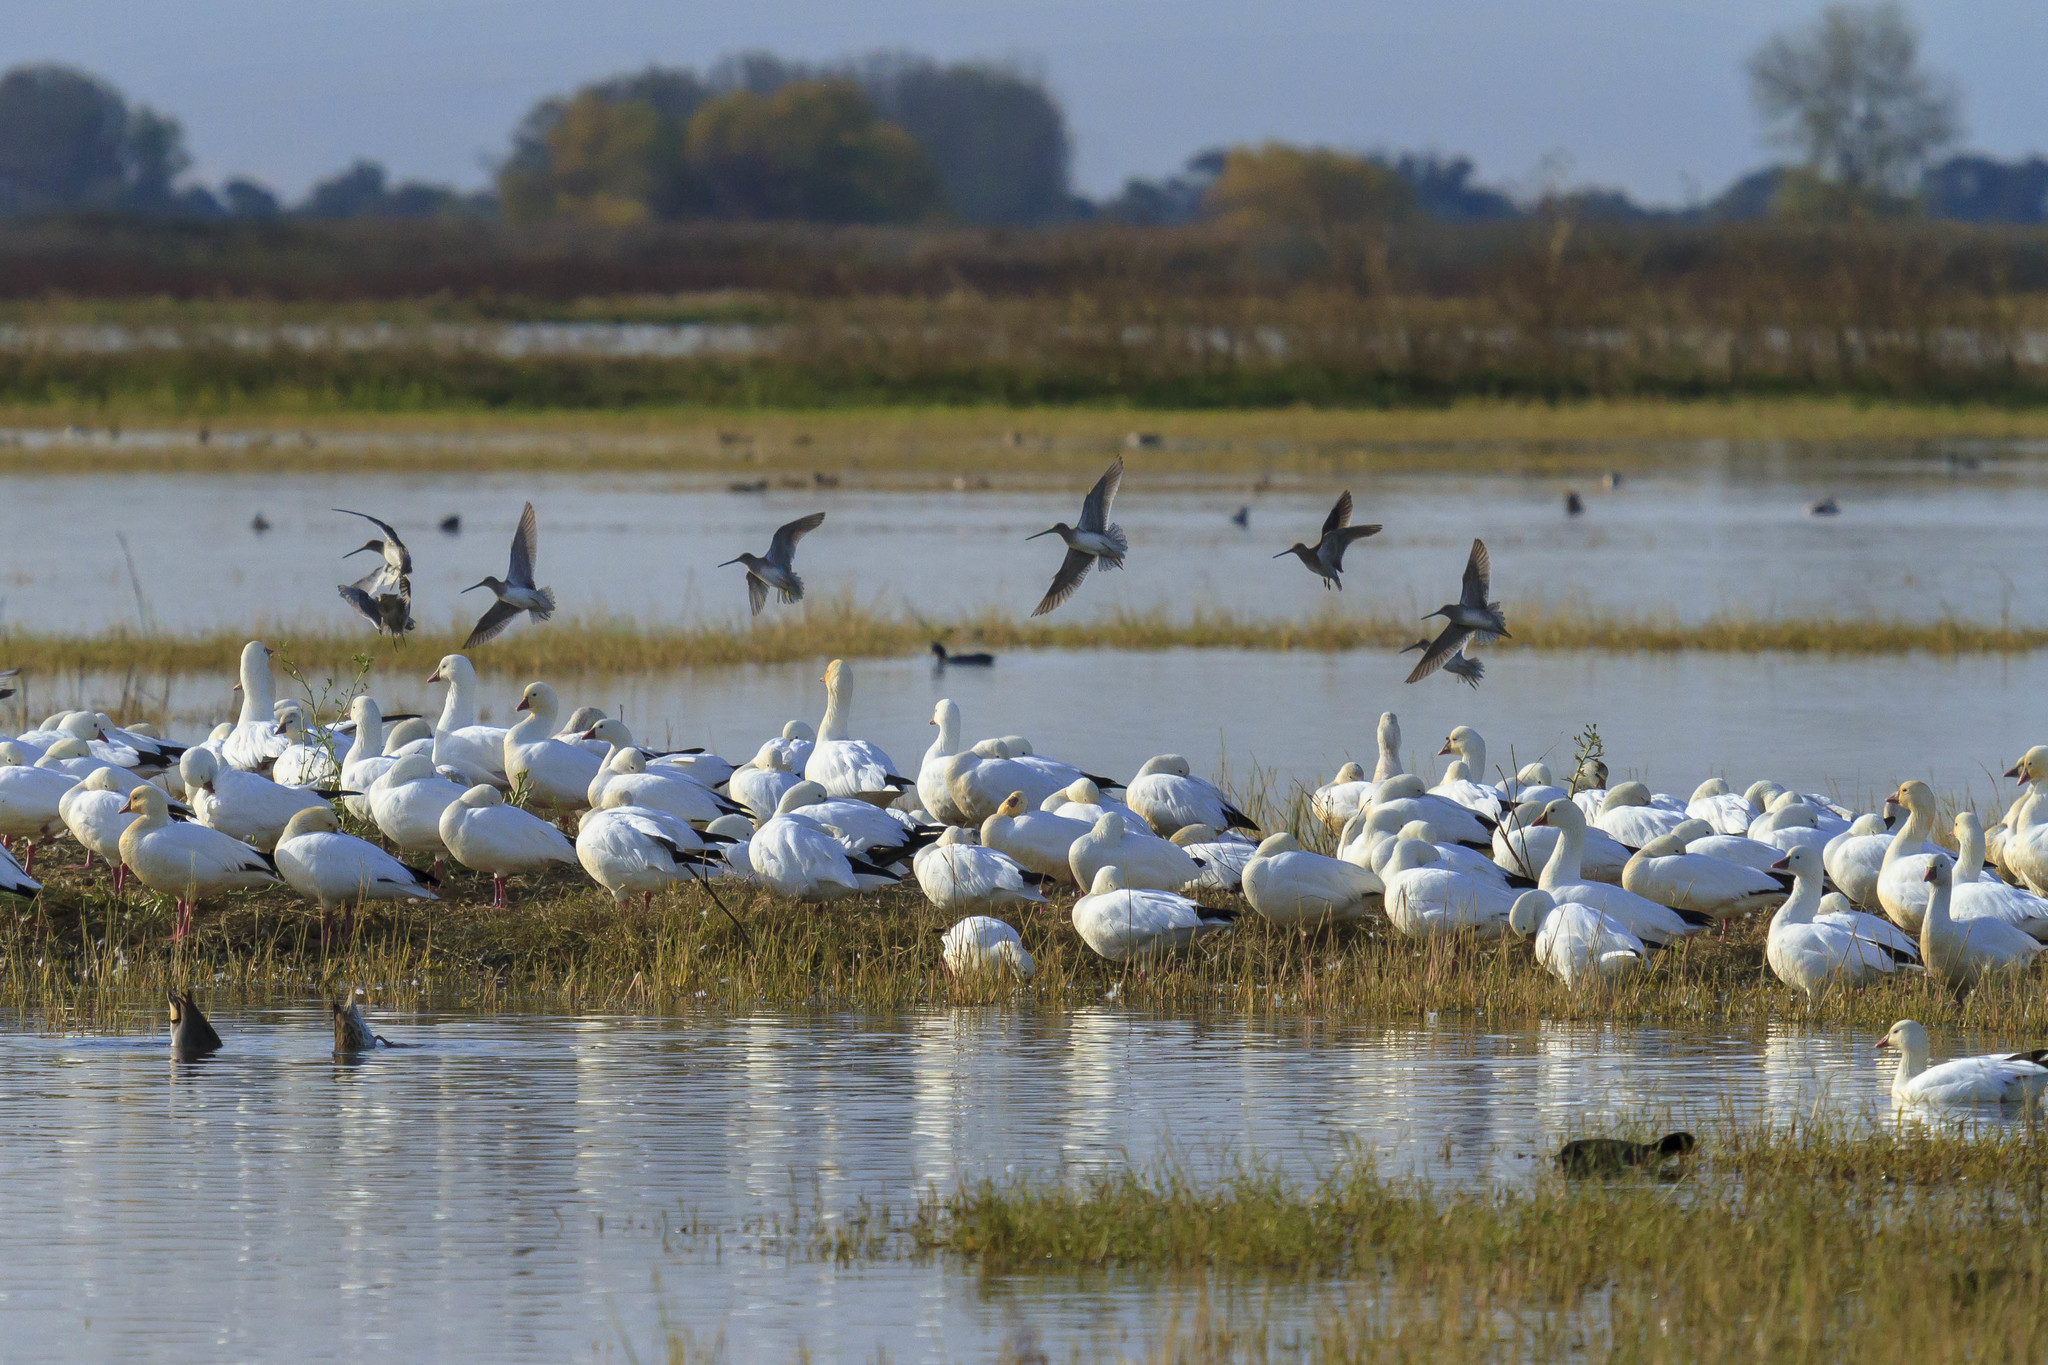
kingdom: Animalia
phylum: Chordata
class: Aves
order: Anseriformes
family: Anatidae
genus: Anser
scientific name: Anser rossii
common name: Ross's goose
